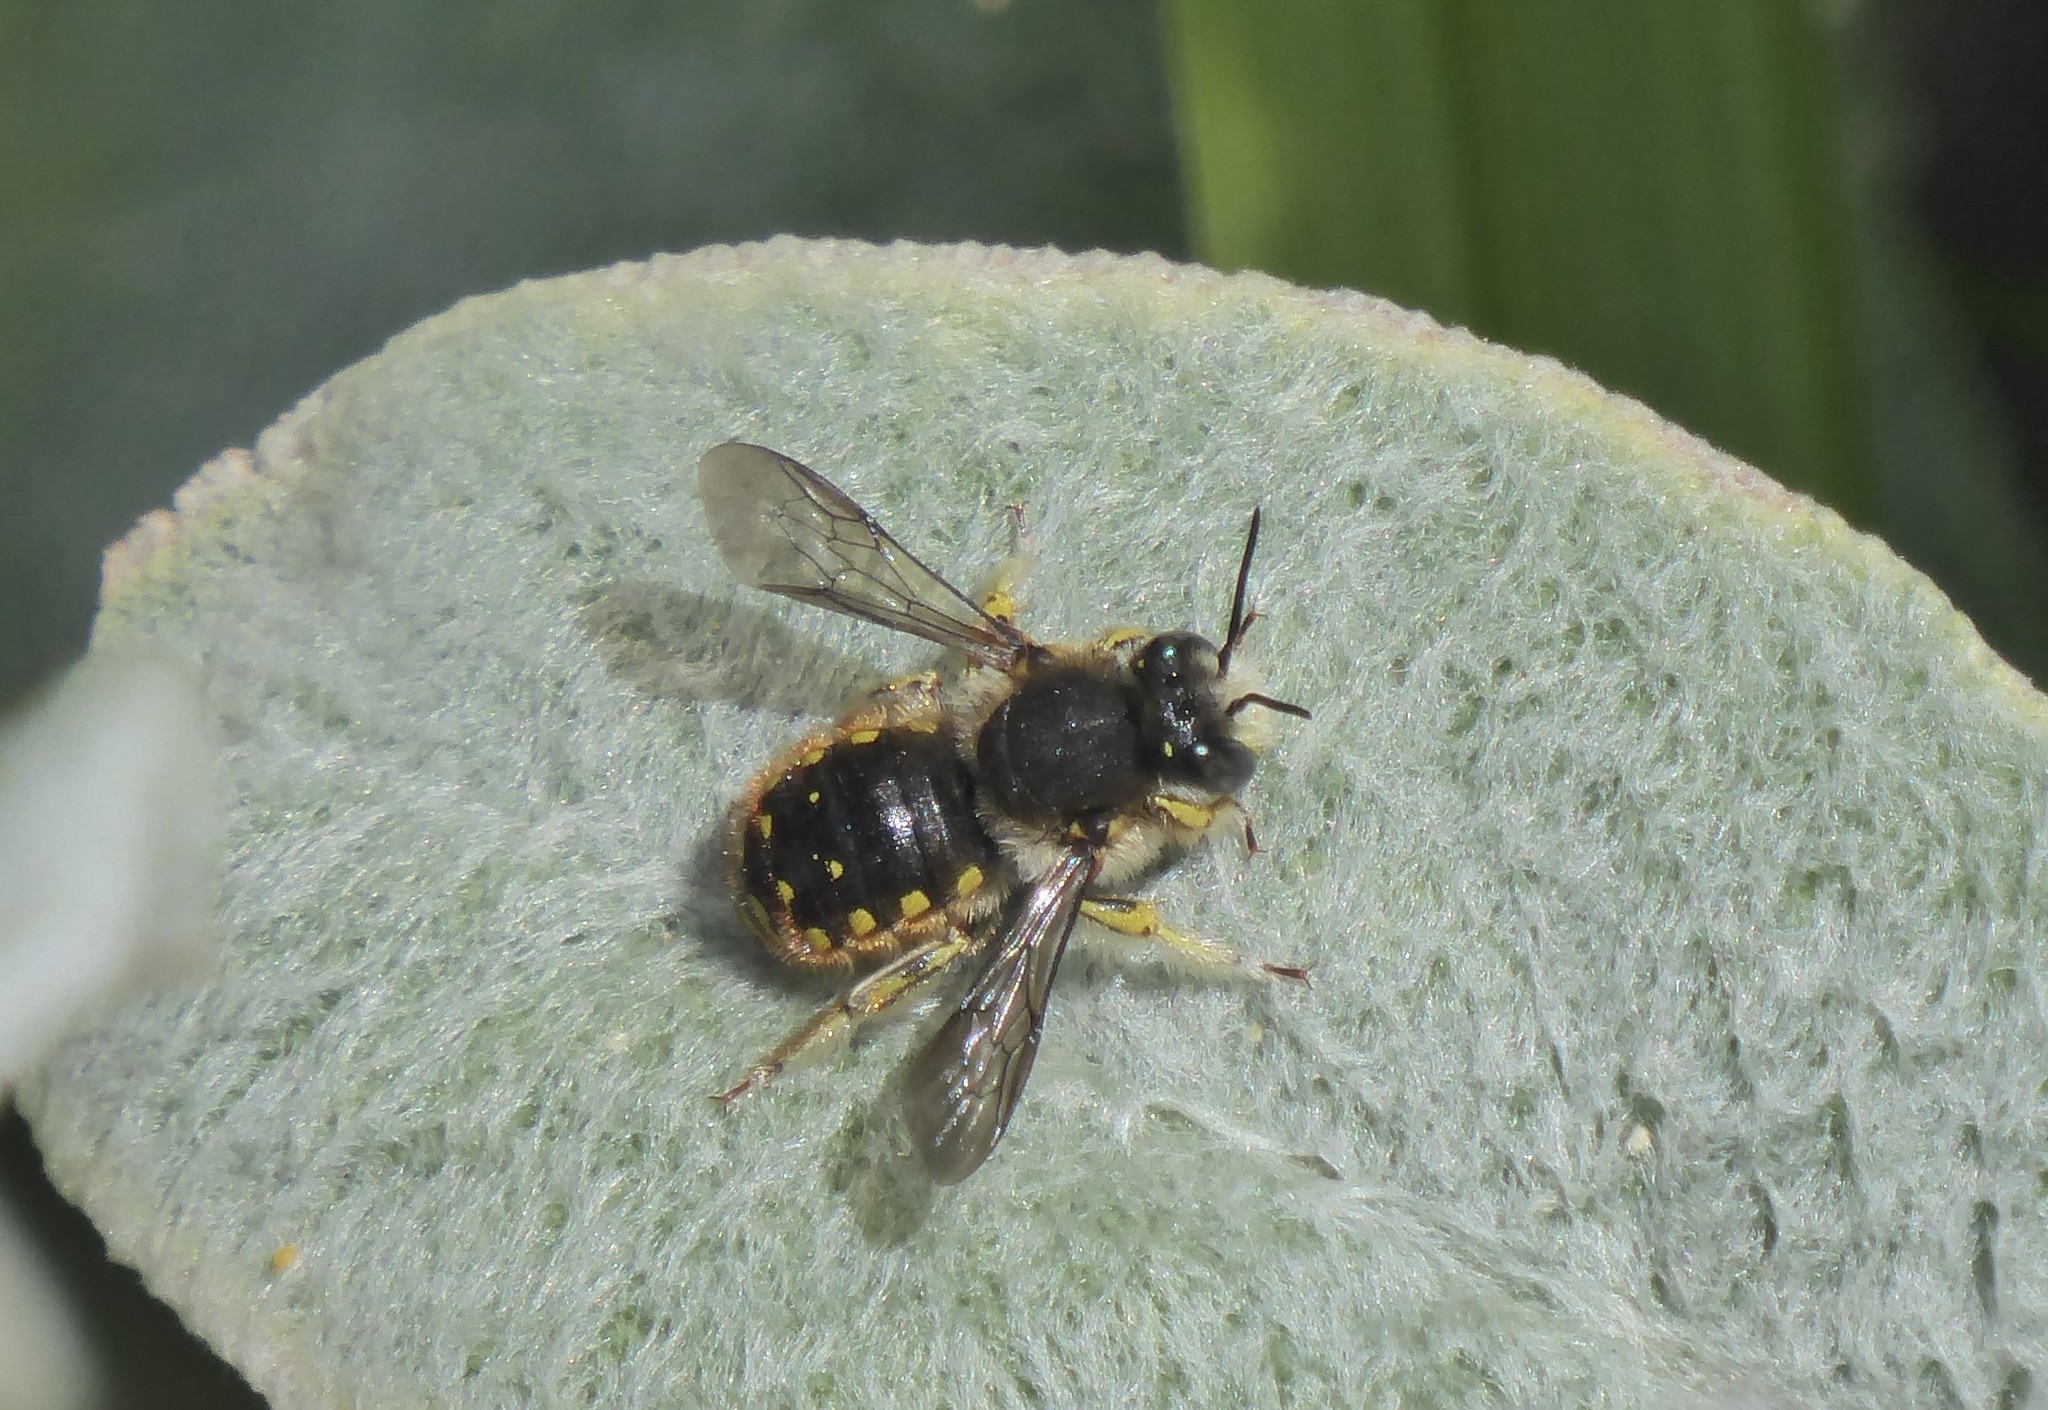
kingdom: Animalia
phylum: Arthropoda
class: Insecta
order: Hymenoptera
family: Megachilidae
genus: Anthidium
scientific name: Anthidium manicatum
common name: Wool carder bee
